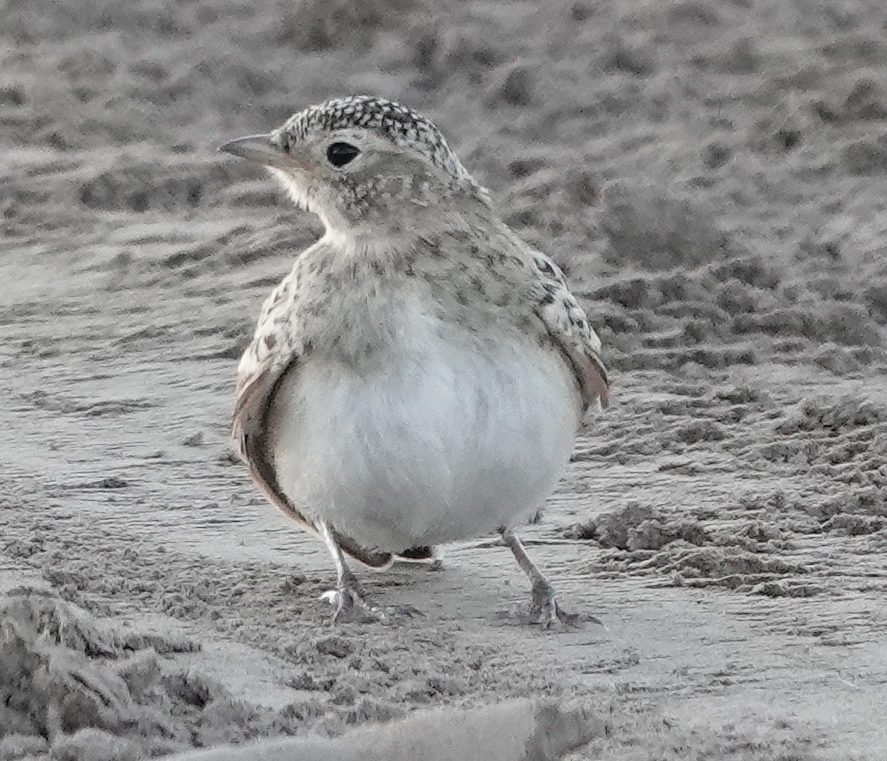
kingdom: Animalia
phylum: Chordata
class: Aves
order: Passeriformes
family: Alaudidae
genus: Eremophila
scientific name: Eremophila alpestris
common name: Horned lark
